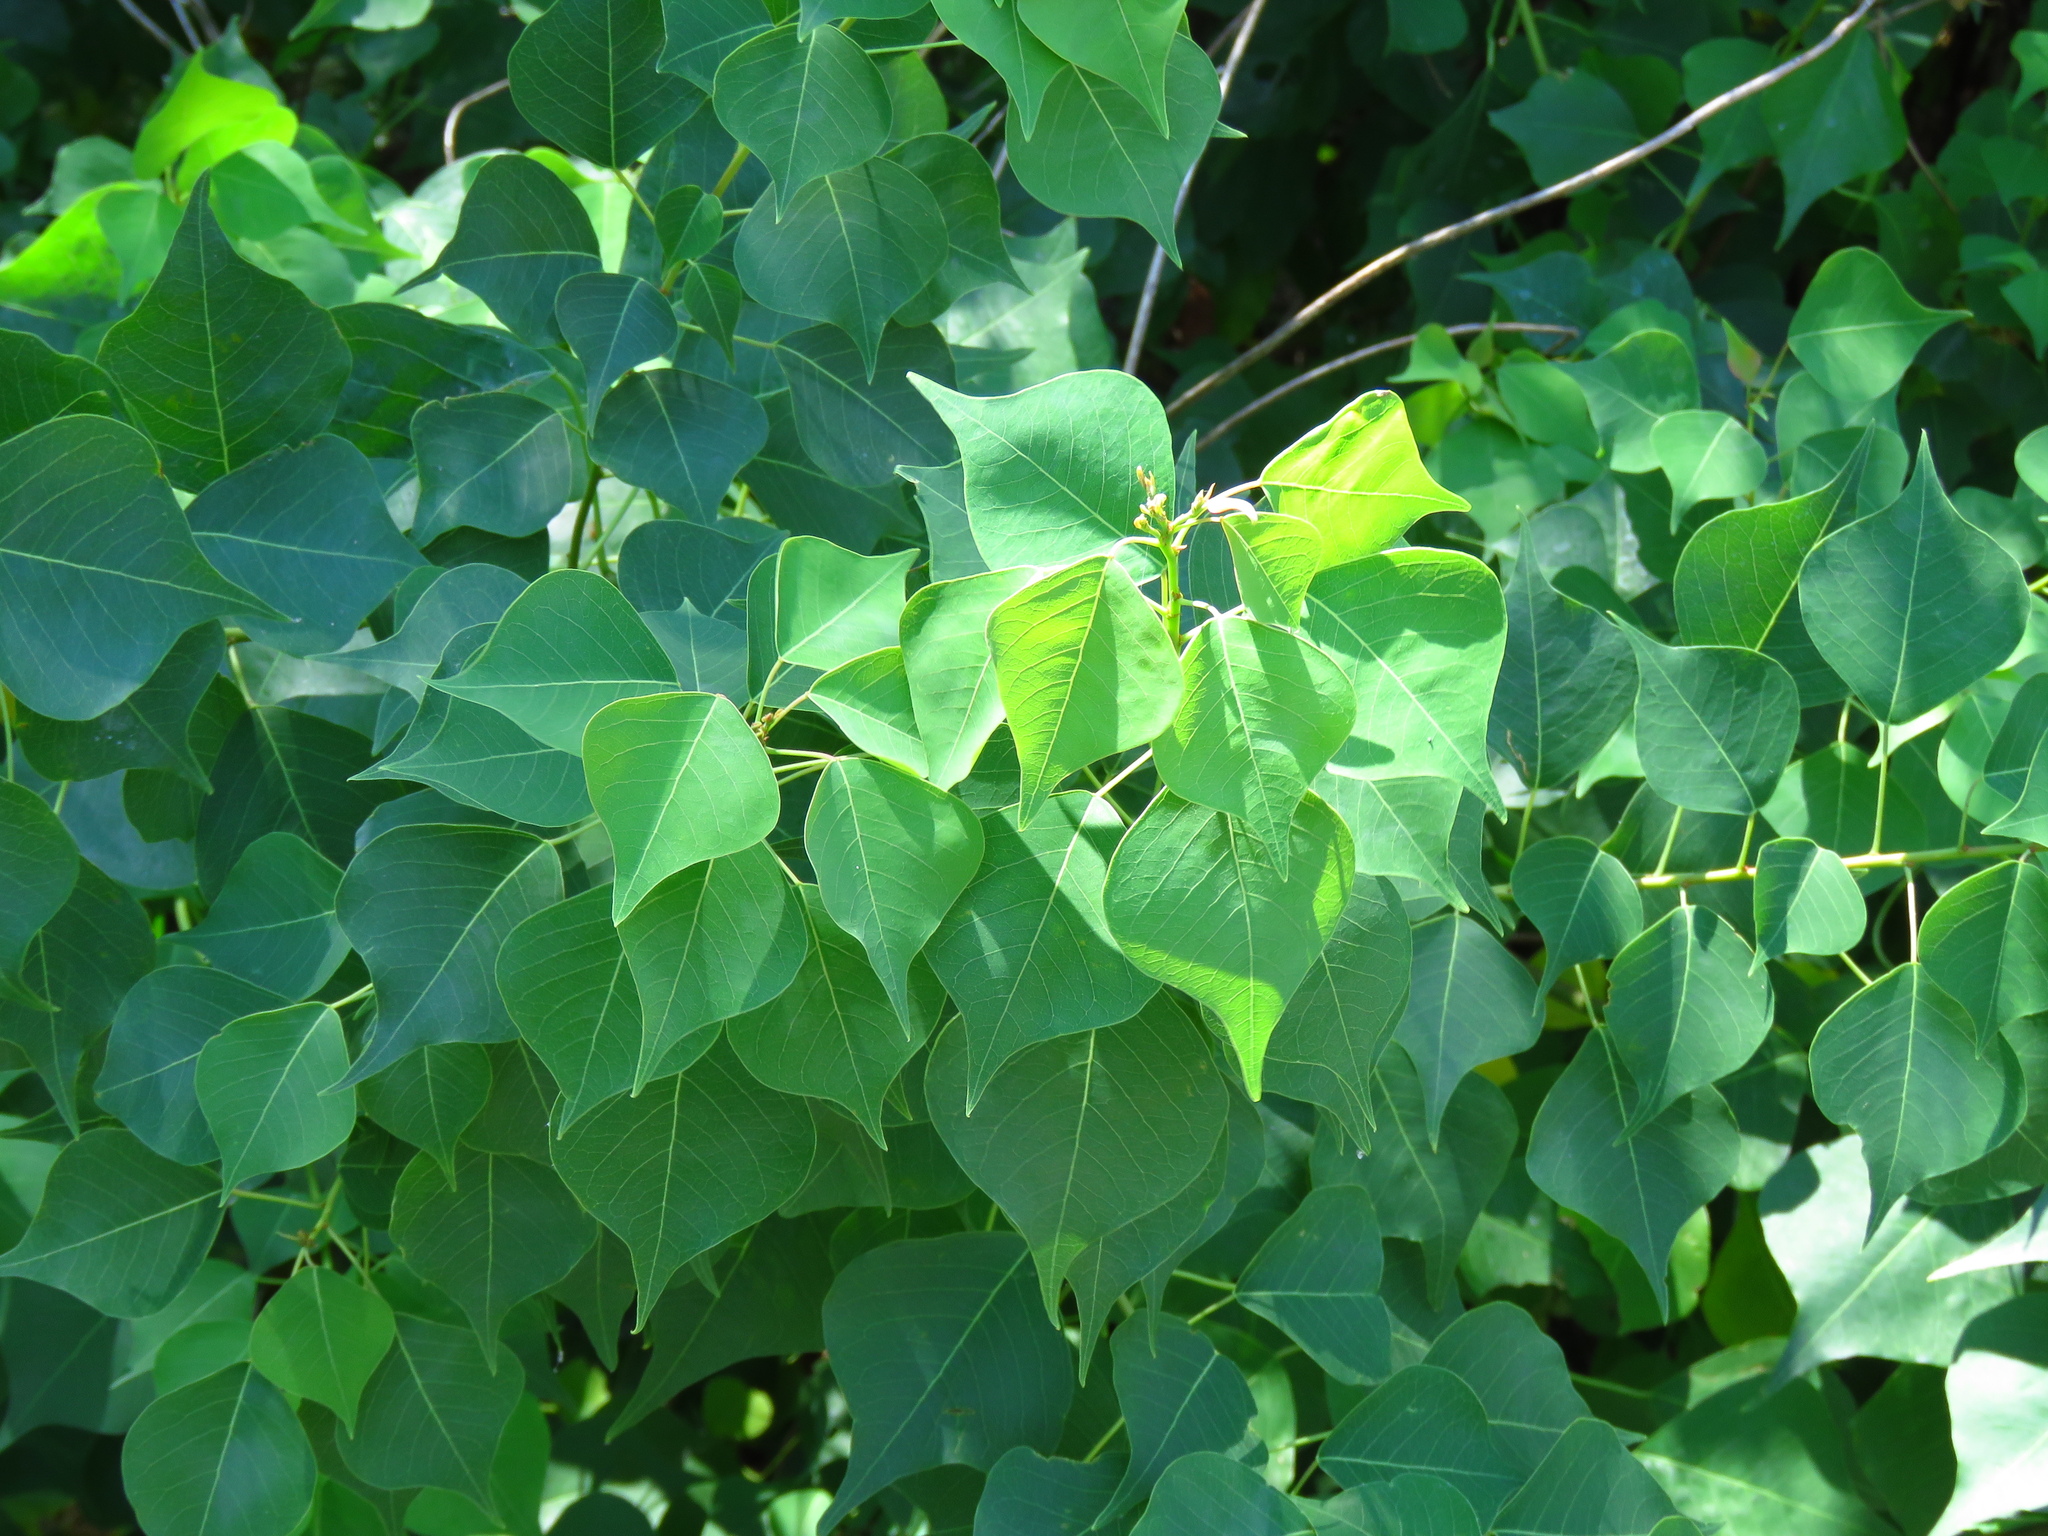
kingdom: Plantae
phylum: Tracheophyta
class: Magnoliopsida
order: Malpighiales
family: Euphorbiaceae
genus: Triadica
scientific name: Triadica sebifera
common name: Chinese tallow
